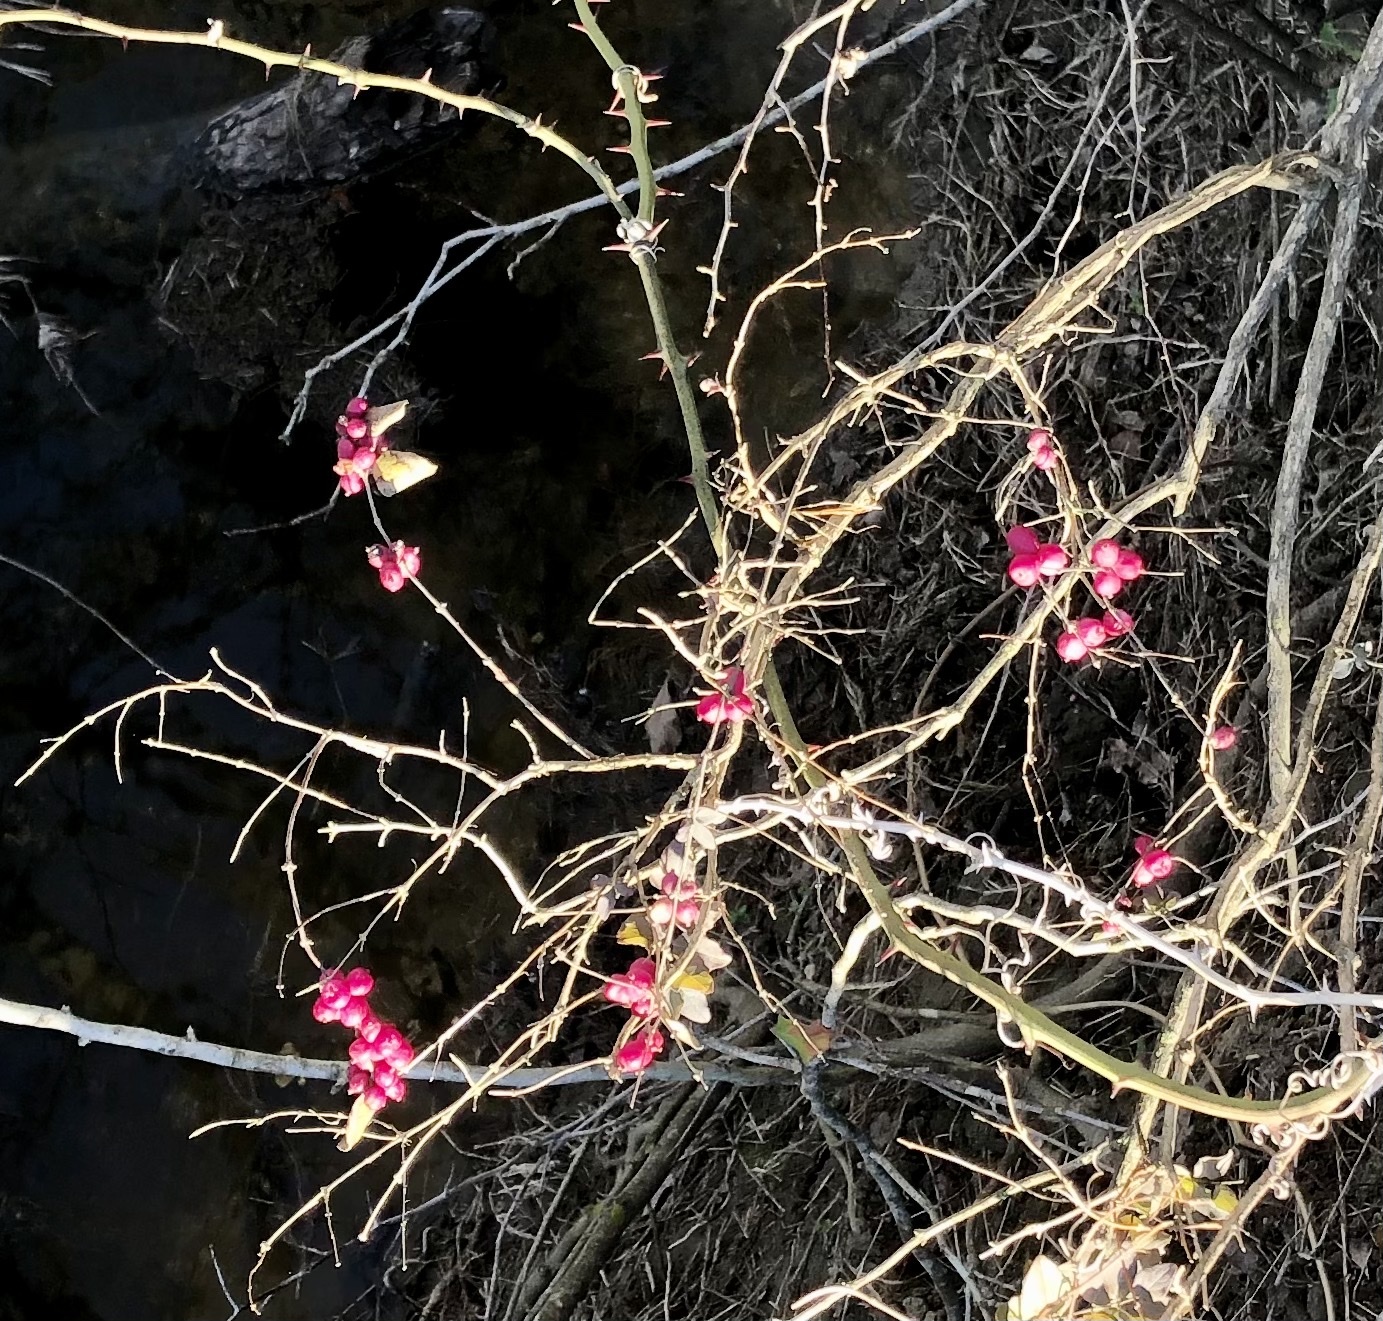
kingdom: Plantae
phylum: Tracheophyta
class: Magnoliopsida
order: Dipsacales
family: Caprifoliaceae
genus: Symphoricarpos
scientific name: Symphoricarpos orbiculatus
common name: Coralberry
